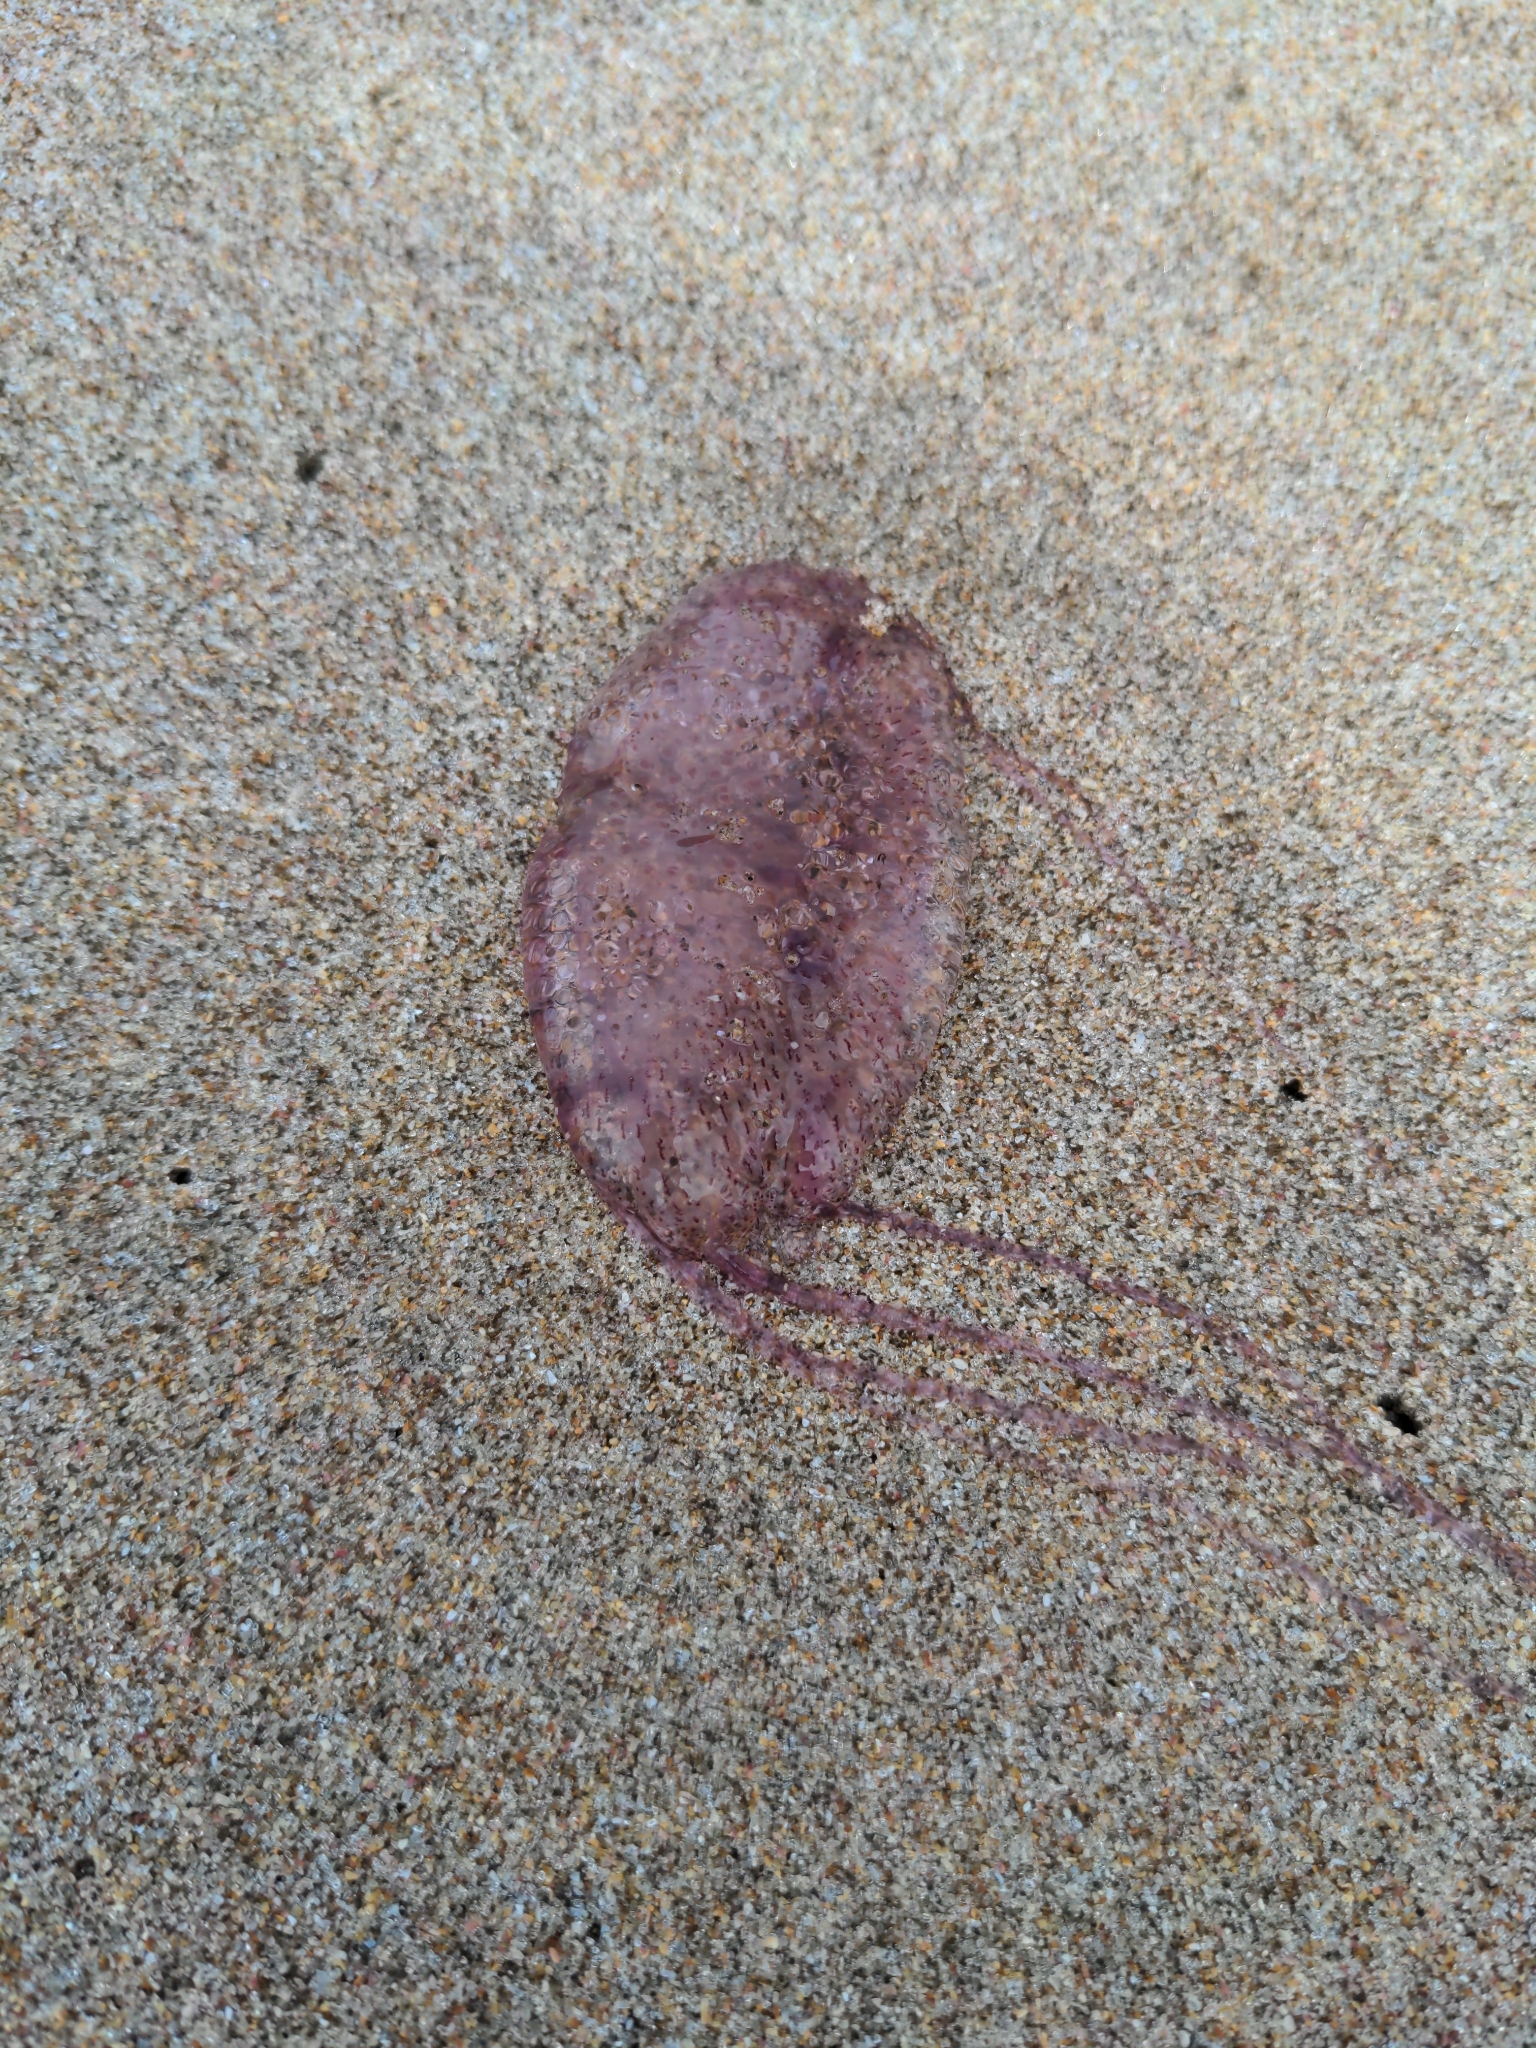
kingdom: Animalia
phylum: Cnidaria
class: Scyphozoa
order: Semaeostomeae
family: Pelagiidae
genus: Pelagia
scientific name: Pelagia noctiluca
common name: Mauve stinger
